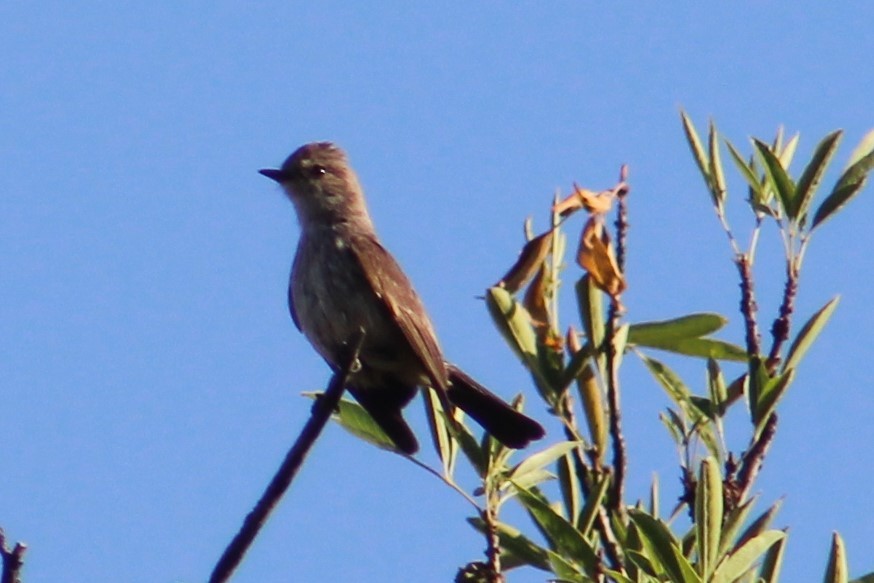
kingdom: Animalia
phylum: Chordata
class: Aves
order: Passeriformes
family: Tyrannidae
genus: Pyrocephalus
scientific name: Pyrocephalus rubinus
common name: Vermilion flycatcher
